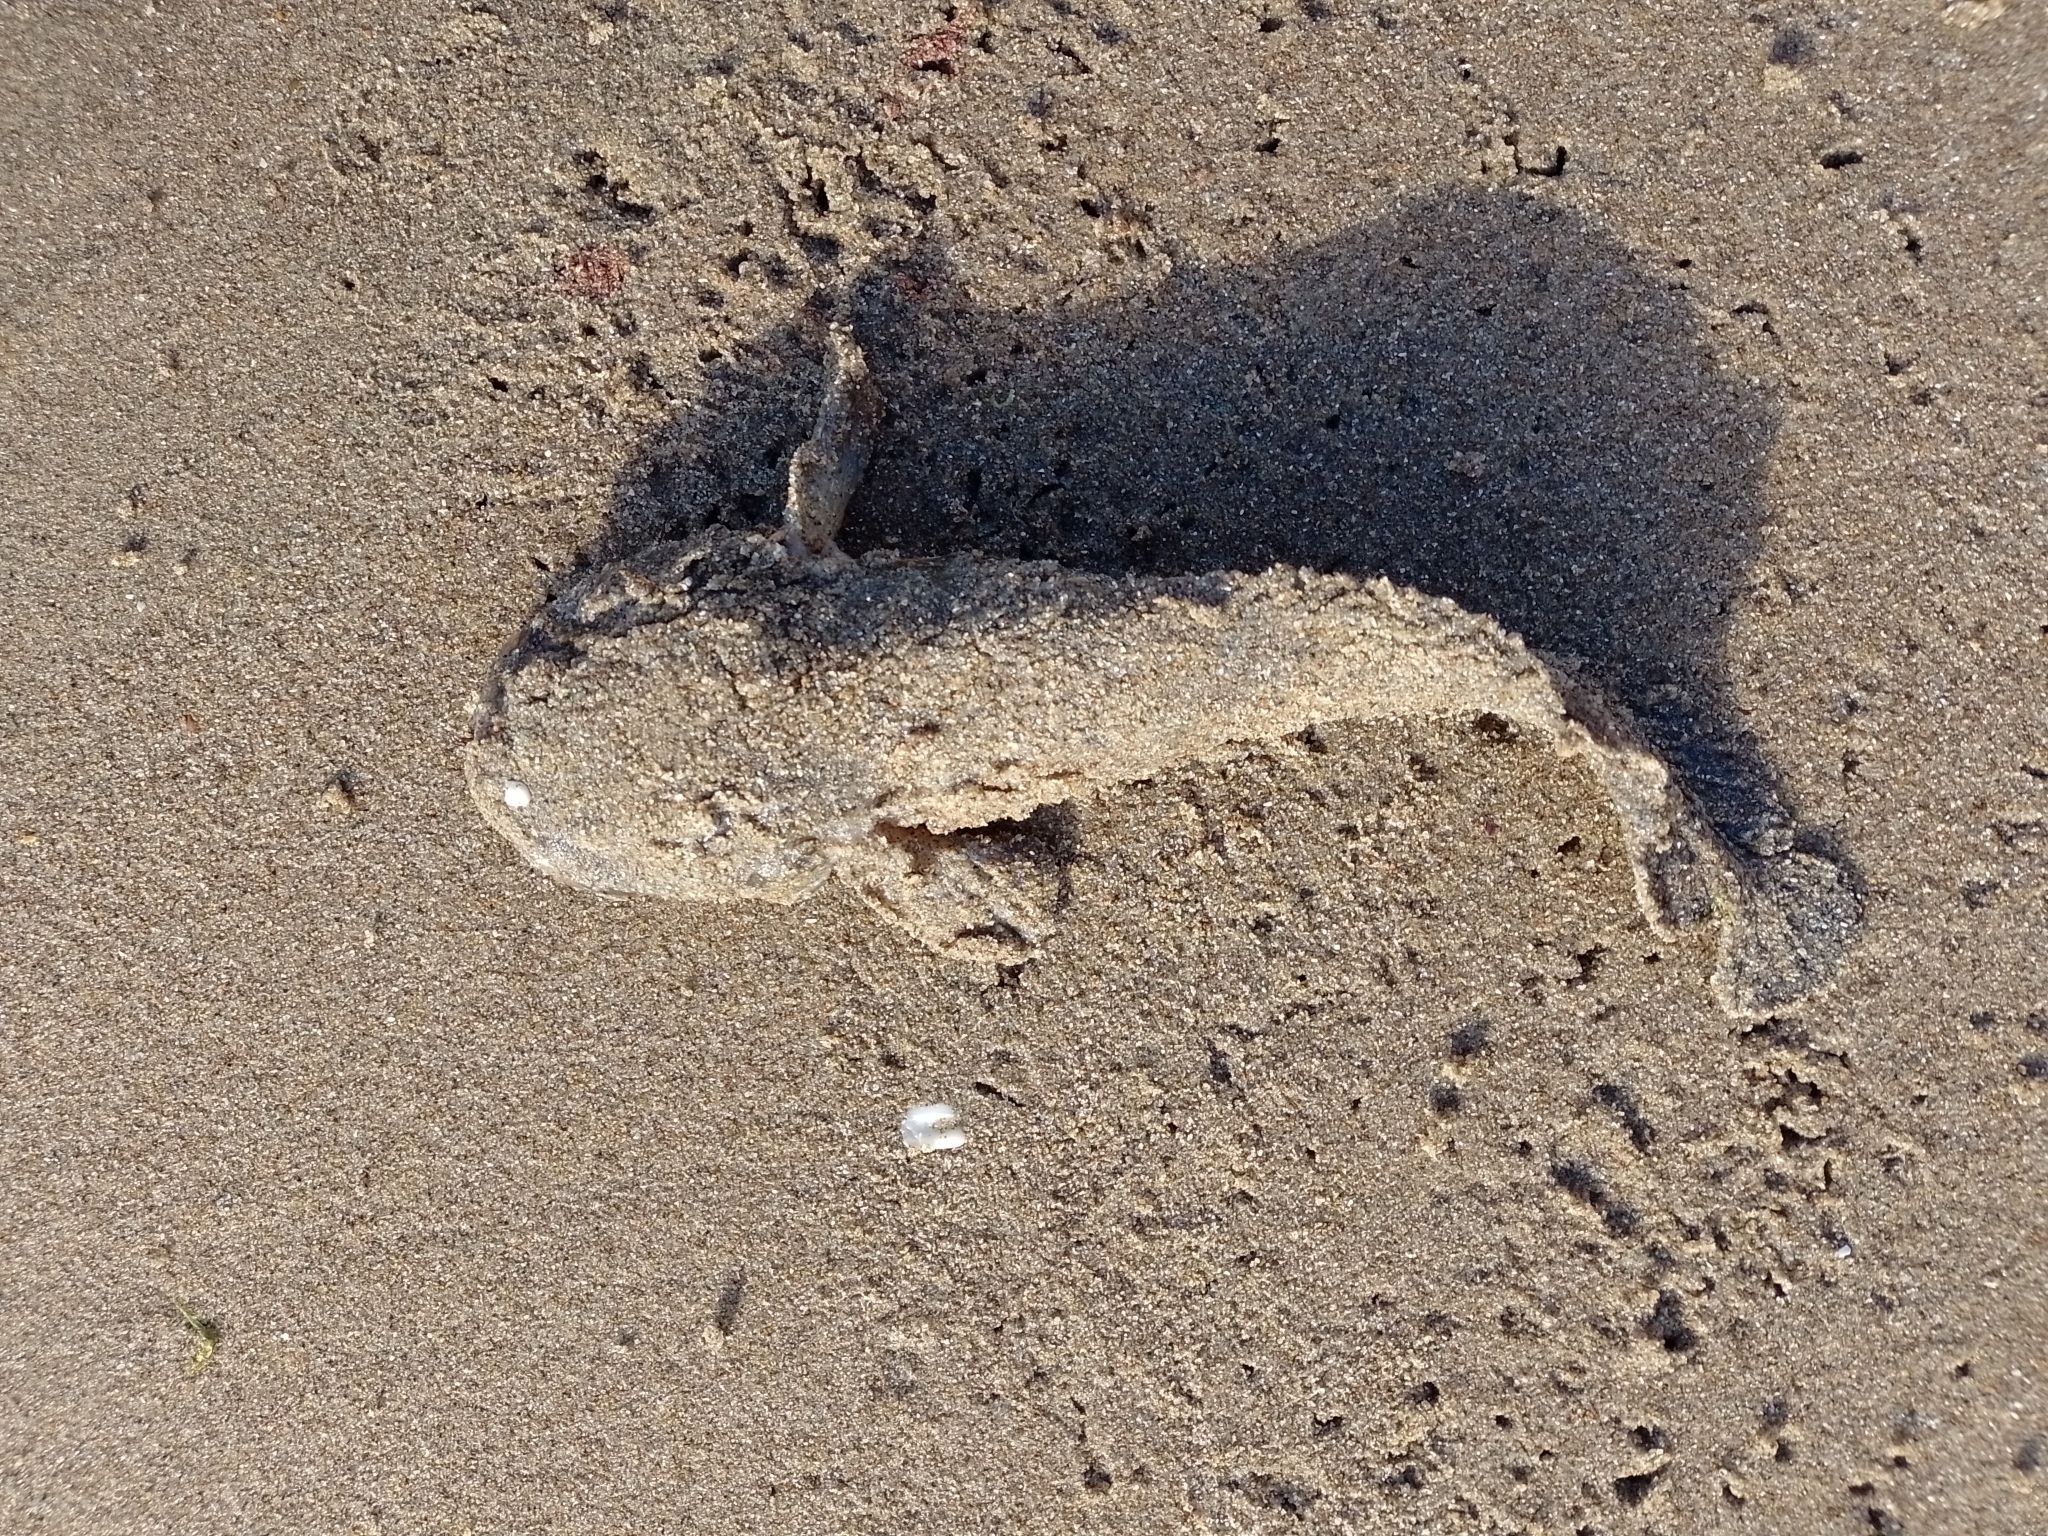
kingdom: Animalia
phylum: Chordata
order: Batrachoidiformes
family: Batrachoididae
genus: Porichthys
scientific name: Porichthys porosissimus
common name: Toadfish
